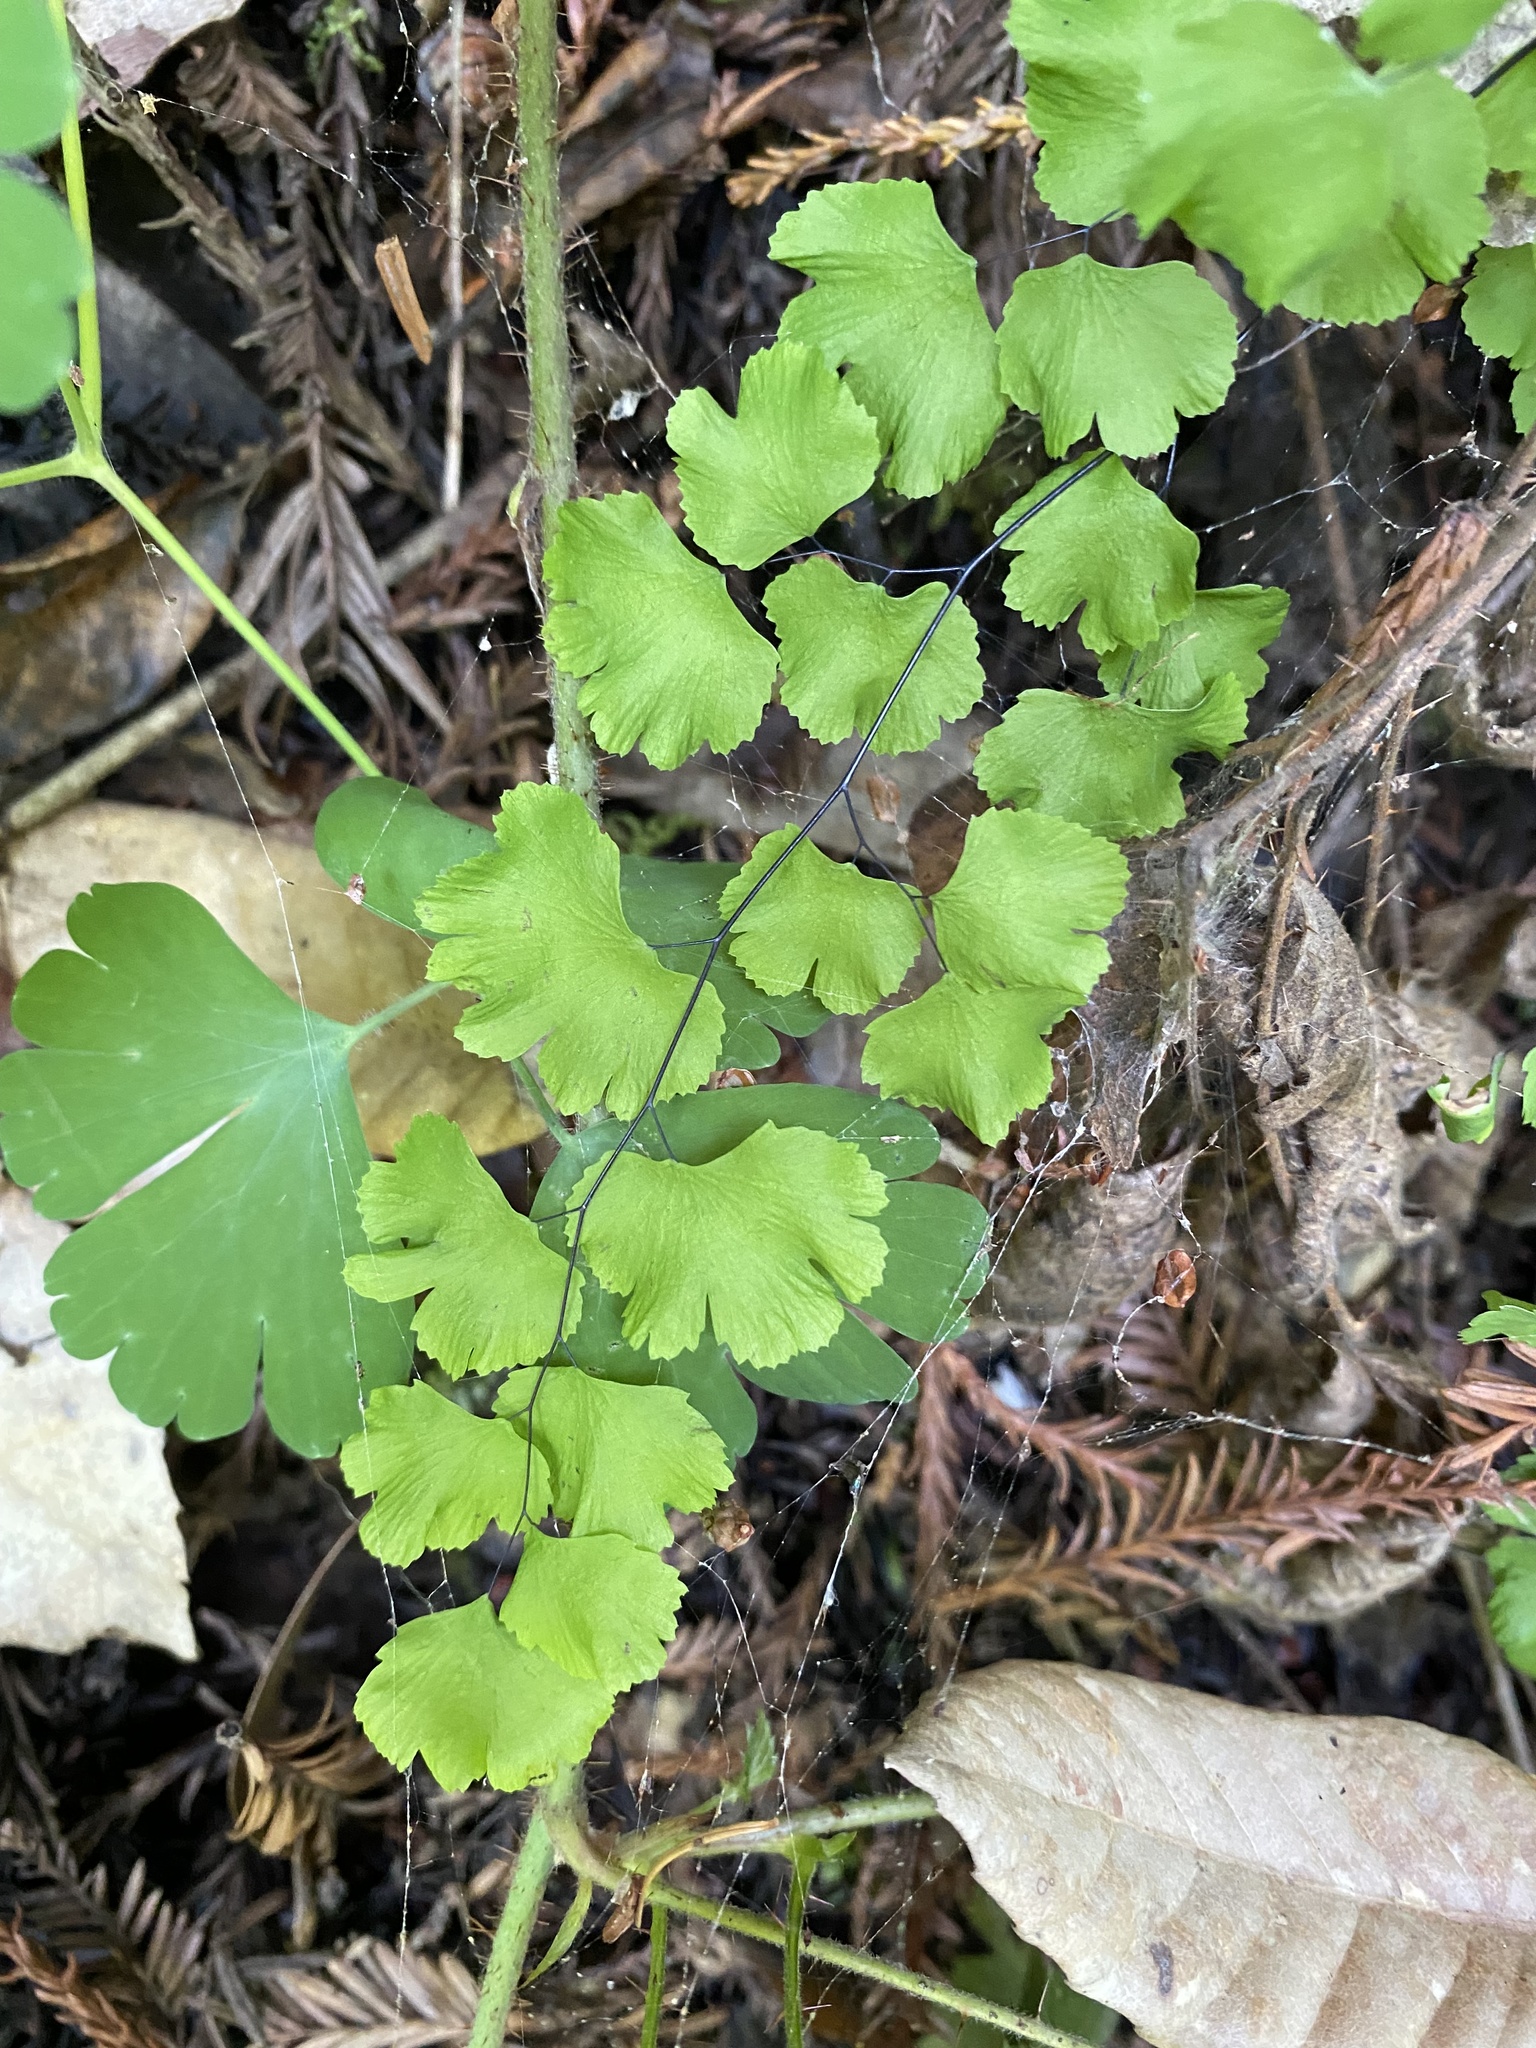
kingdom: Plantae
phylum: Tracheophyta
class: Polypodiopsida
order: Polypodiales
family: Pteridaceae
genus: Adiantum
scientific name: Adiantum jordanii
